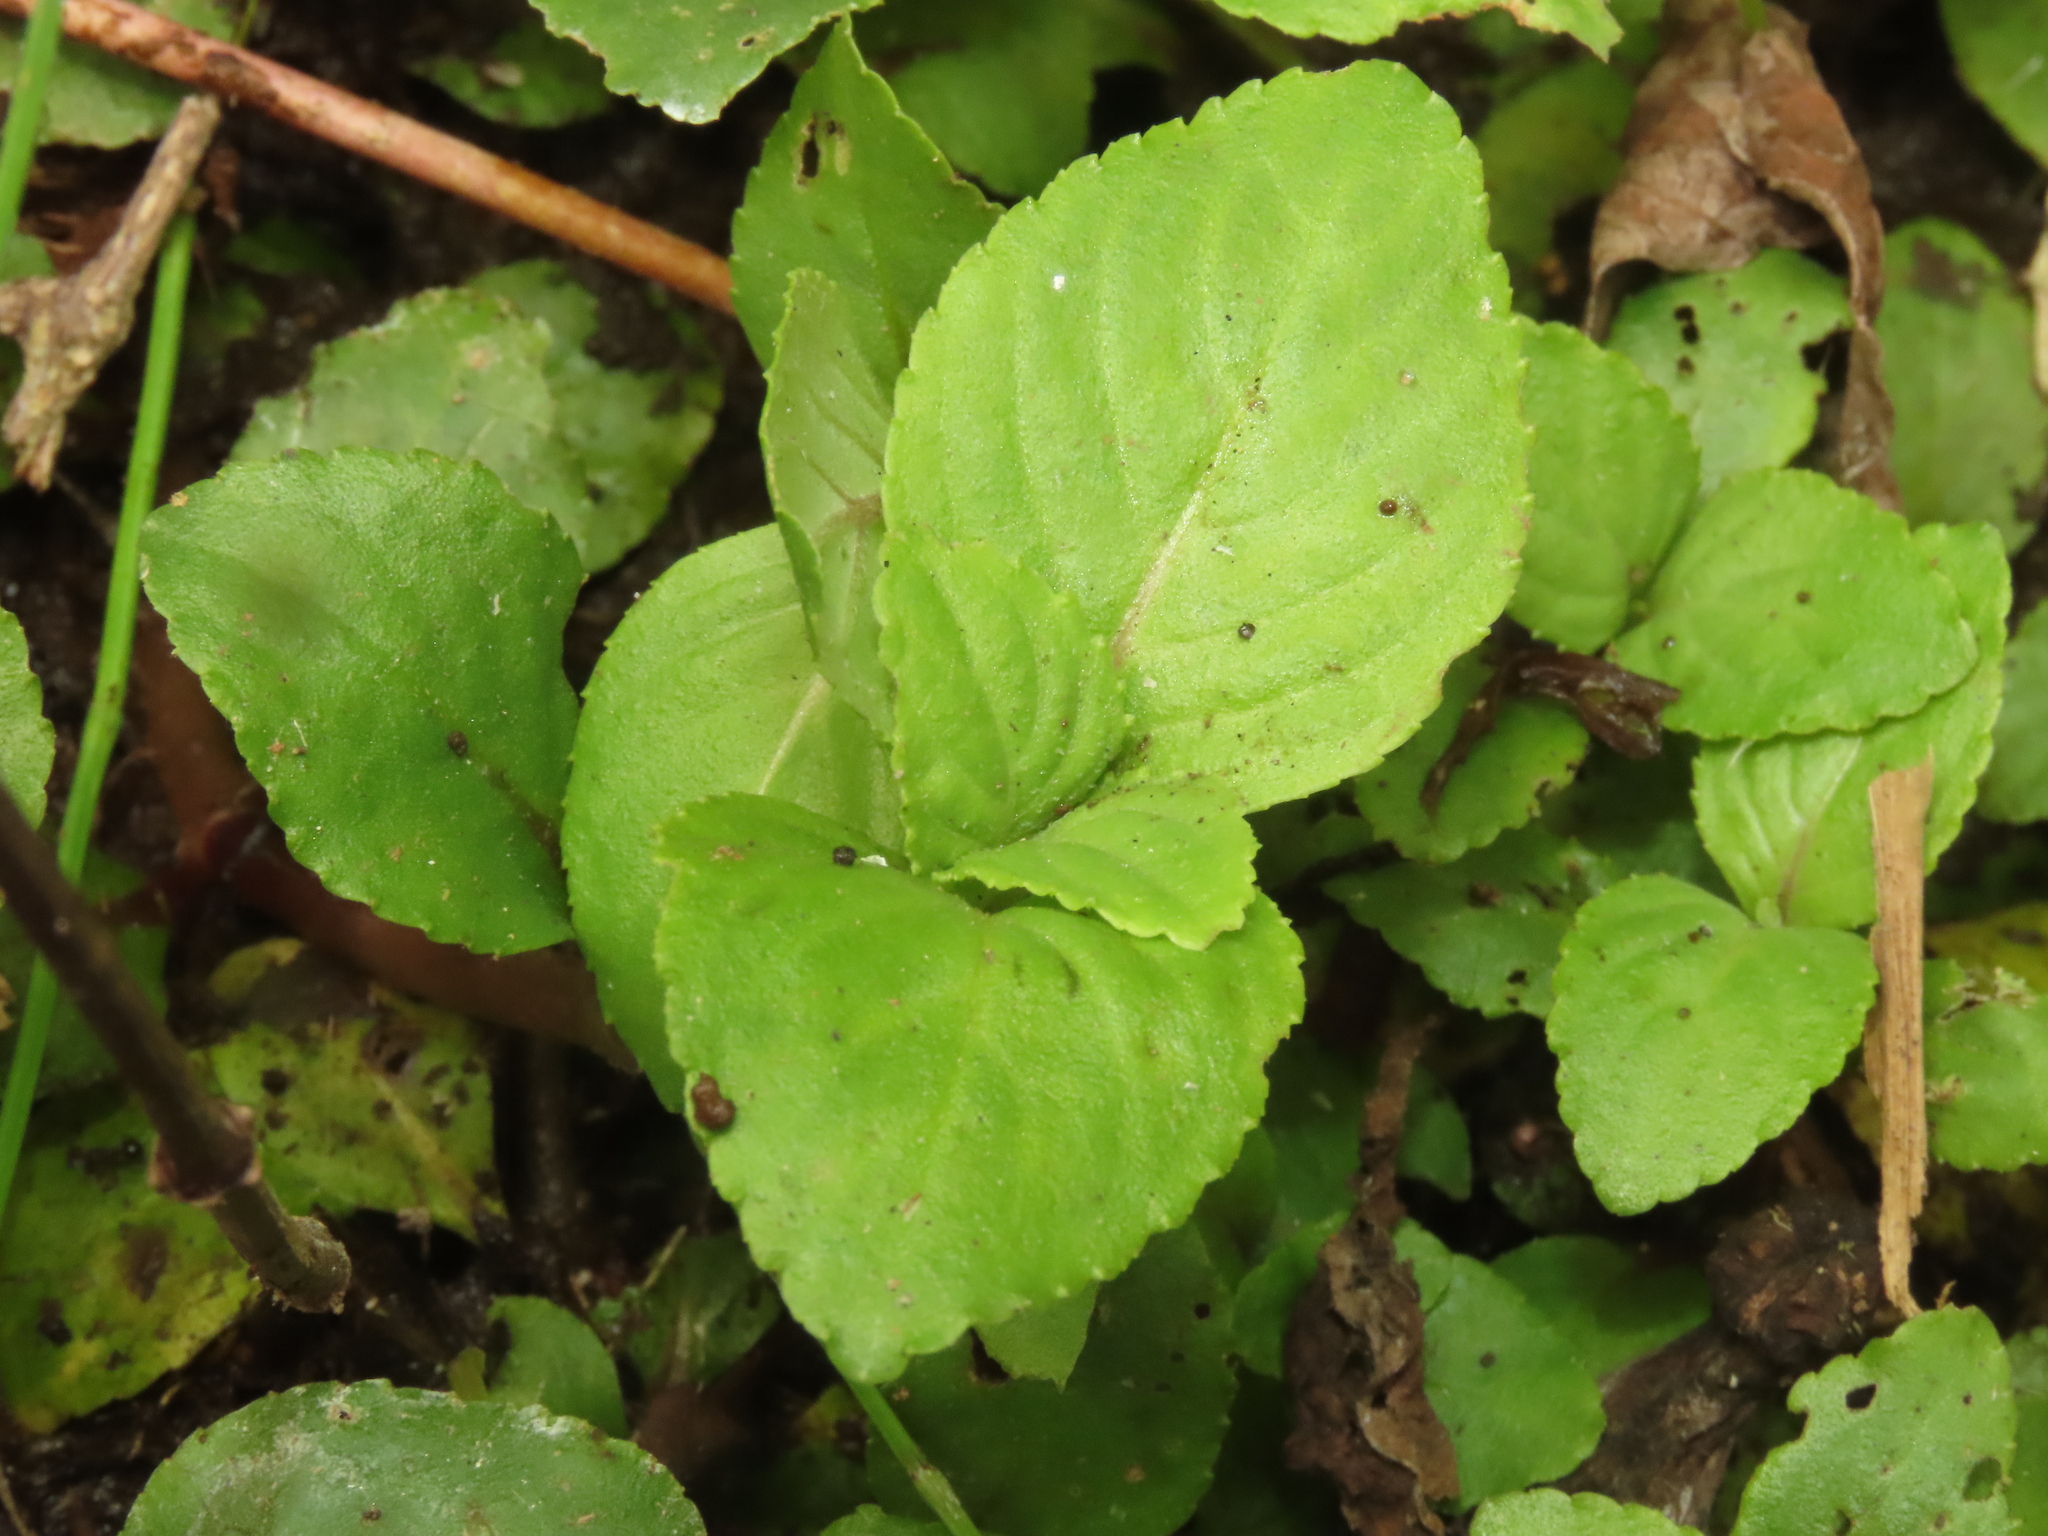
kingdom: Plantae
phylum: Tracheophyta
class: Magnoliopsida
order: Lamiales
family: Plantaginaceae
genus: Limnophila
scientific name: Limnophila rugosa
